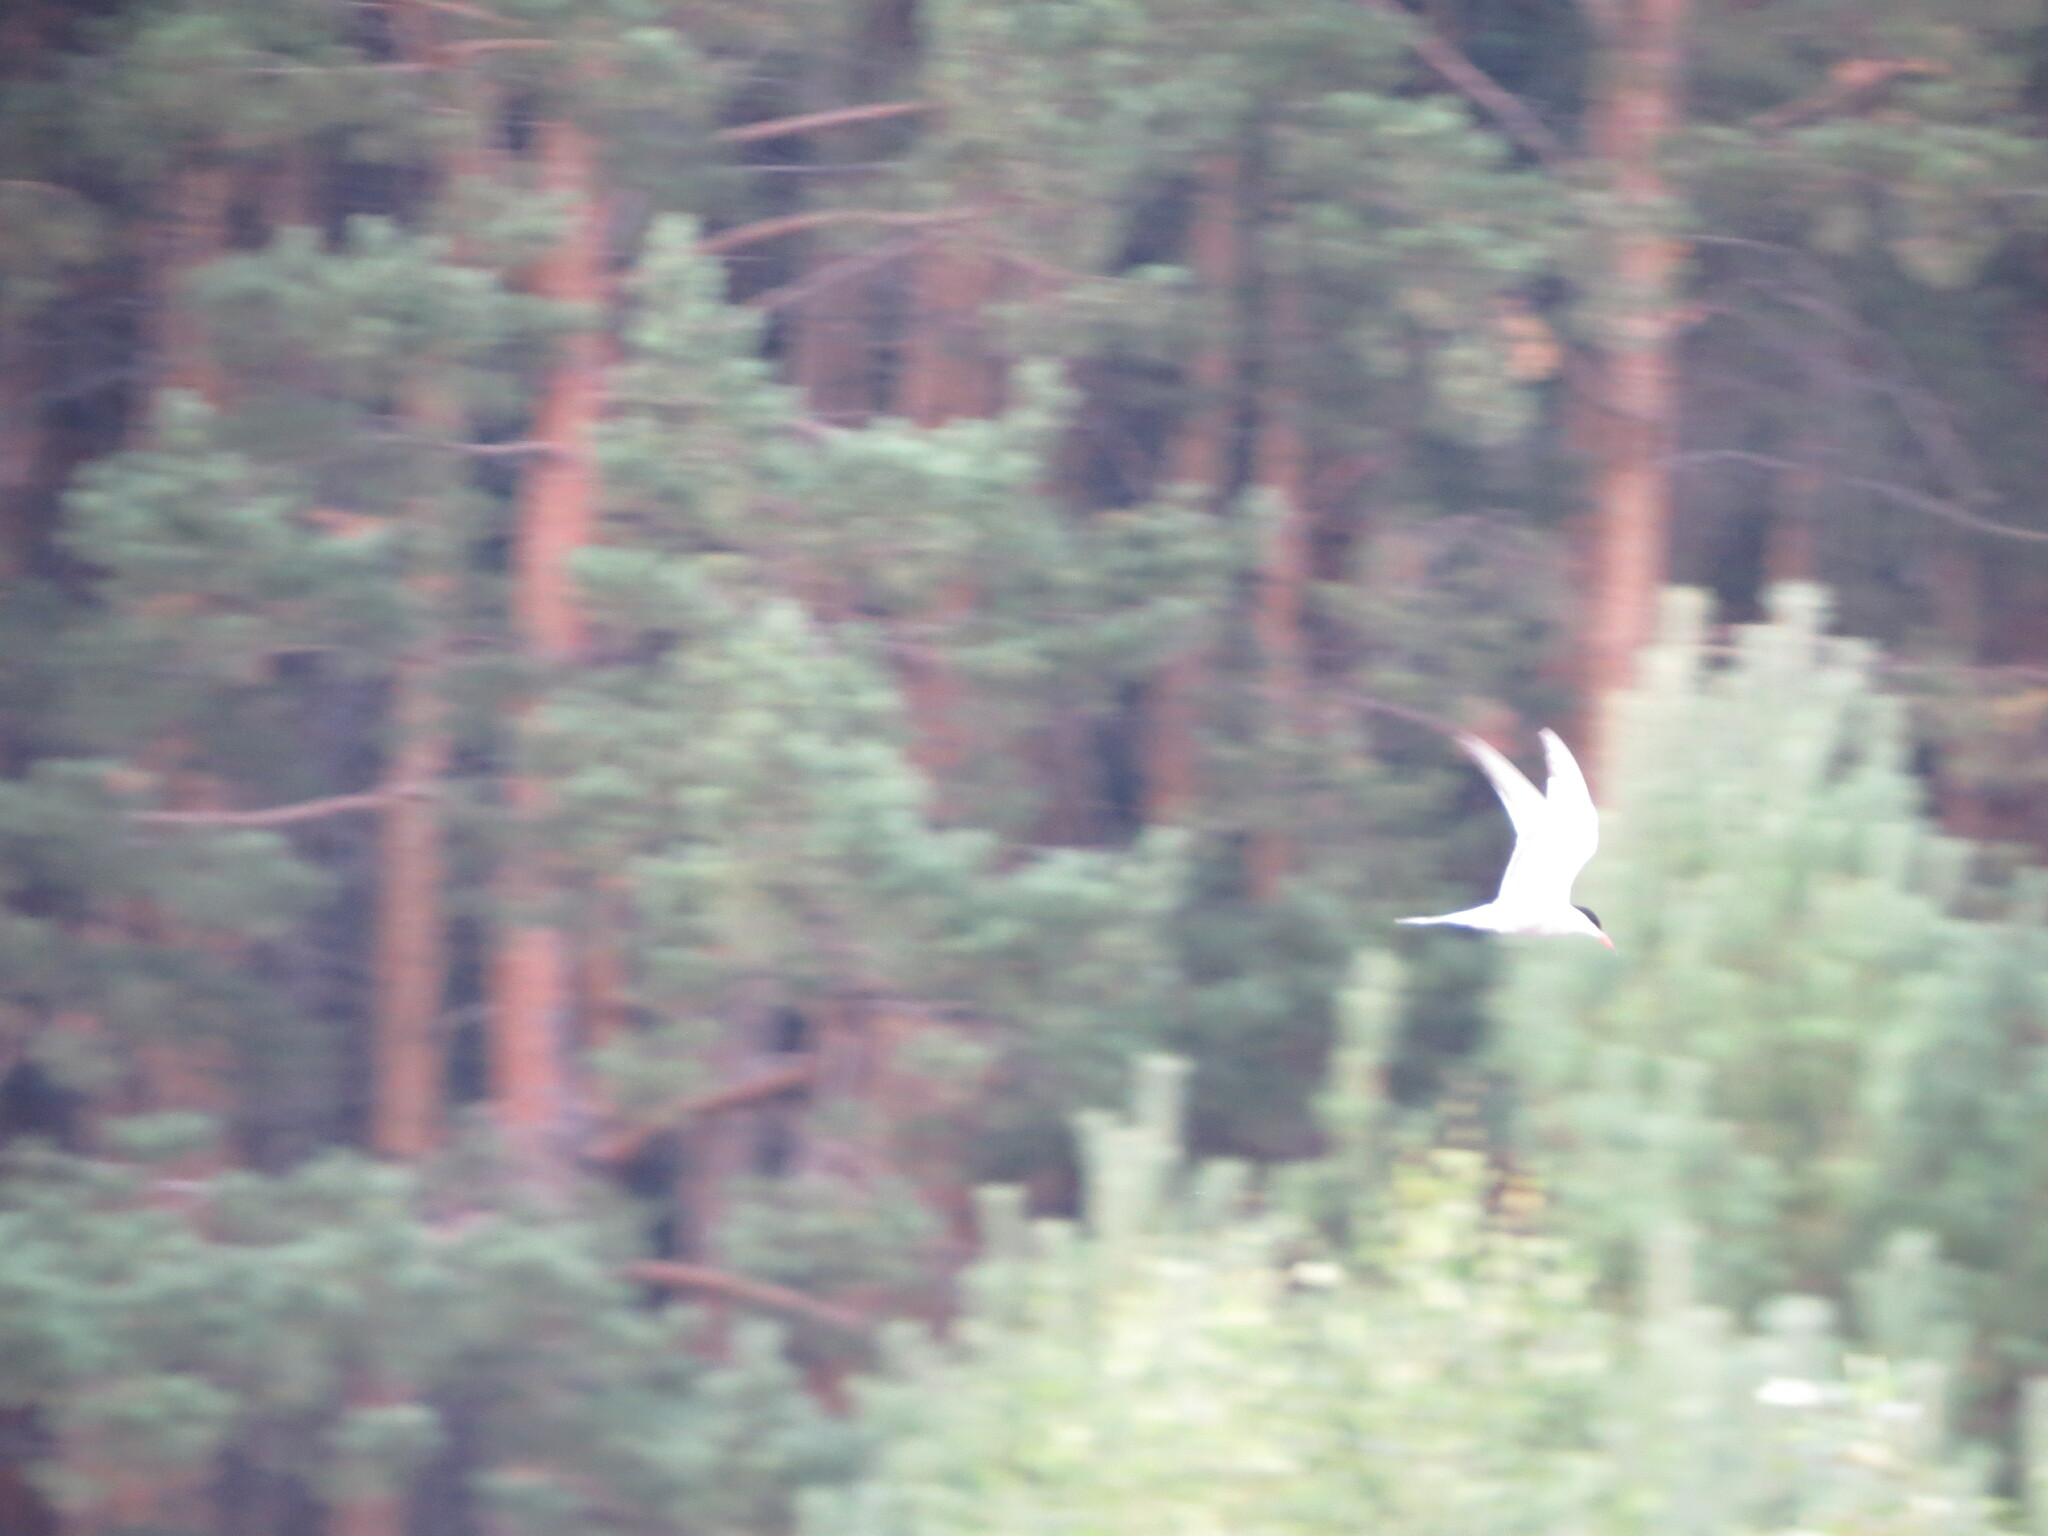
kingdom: Animalia
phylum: Chordata
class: Aves
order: Charadriiformes
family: Laridae
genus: Sterna
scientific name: Sterna hirundo
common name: Common tern
